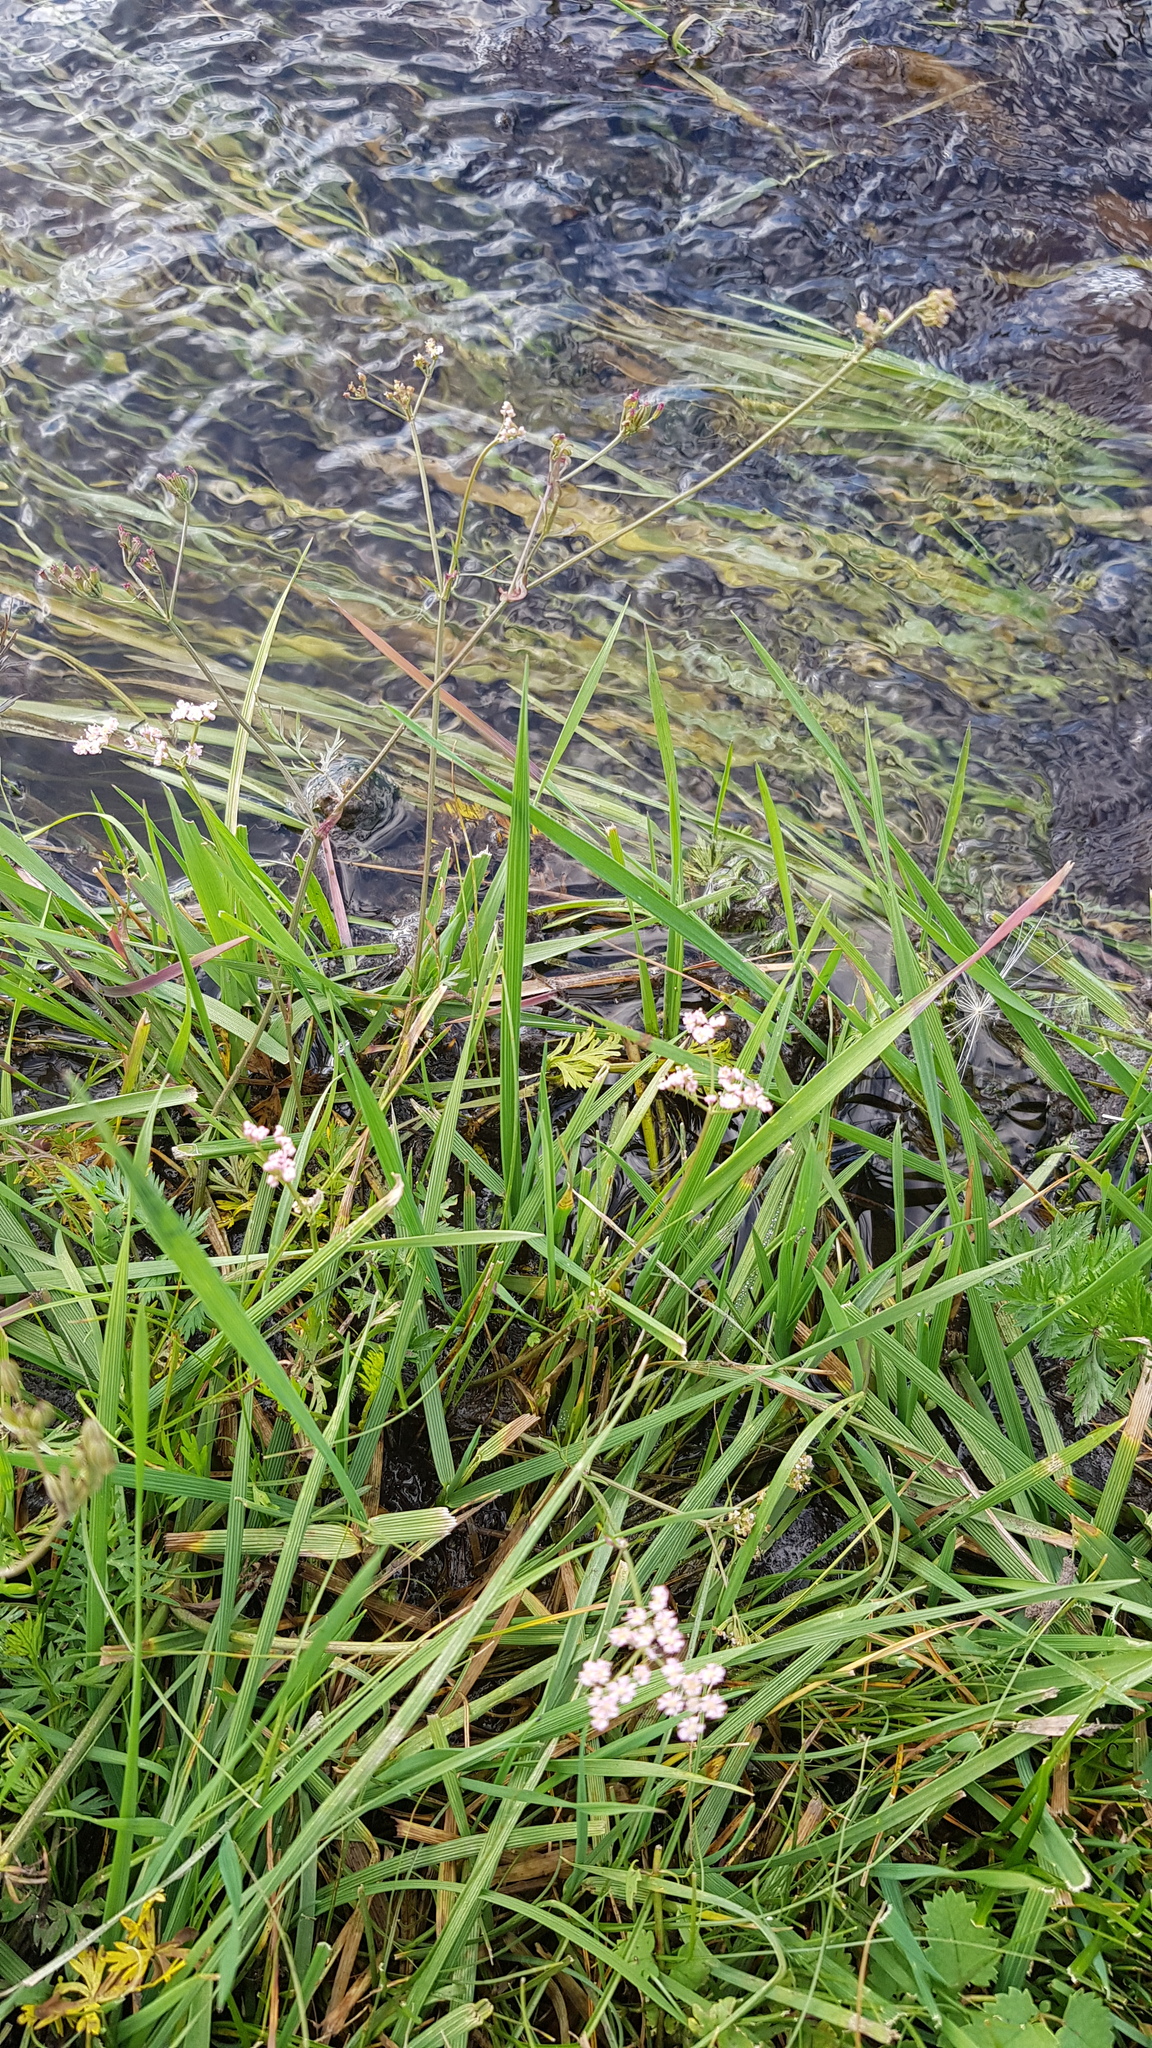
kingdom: Plantae
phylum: Tracheophyta
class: Magnoliopsida
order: Apiales
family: Apiaceae
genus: Carum
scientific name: Carum carvi
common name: Caraway
